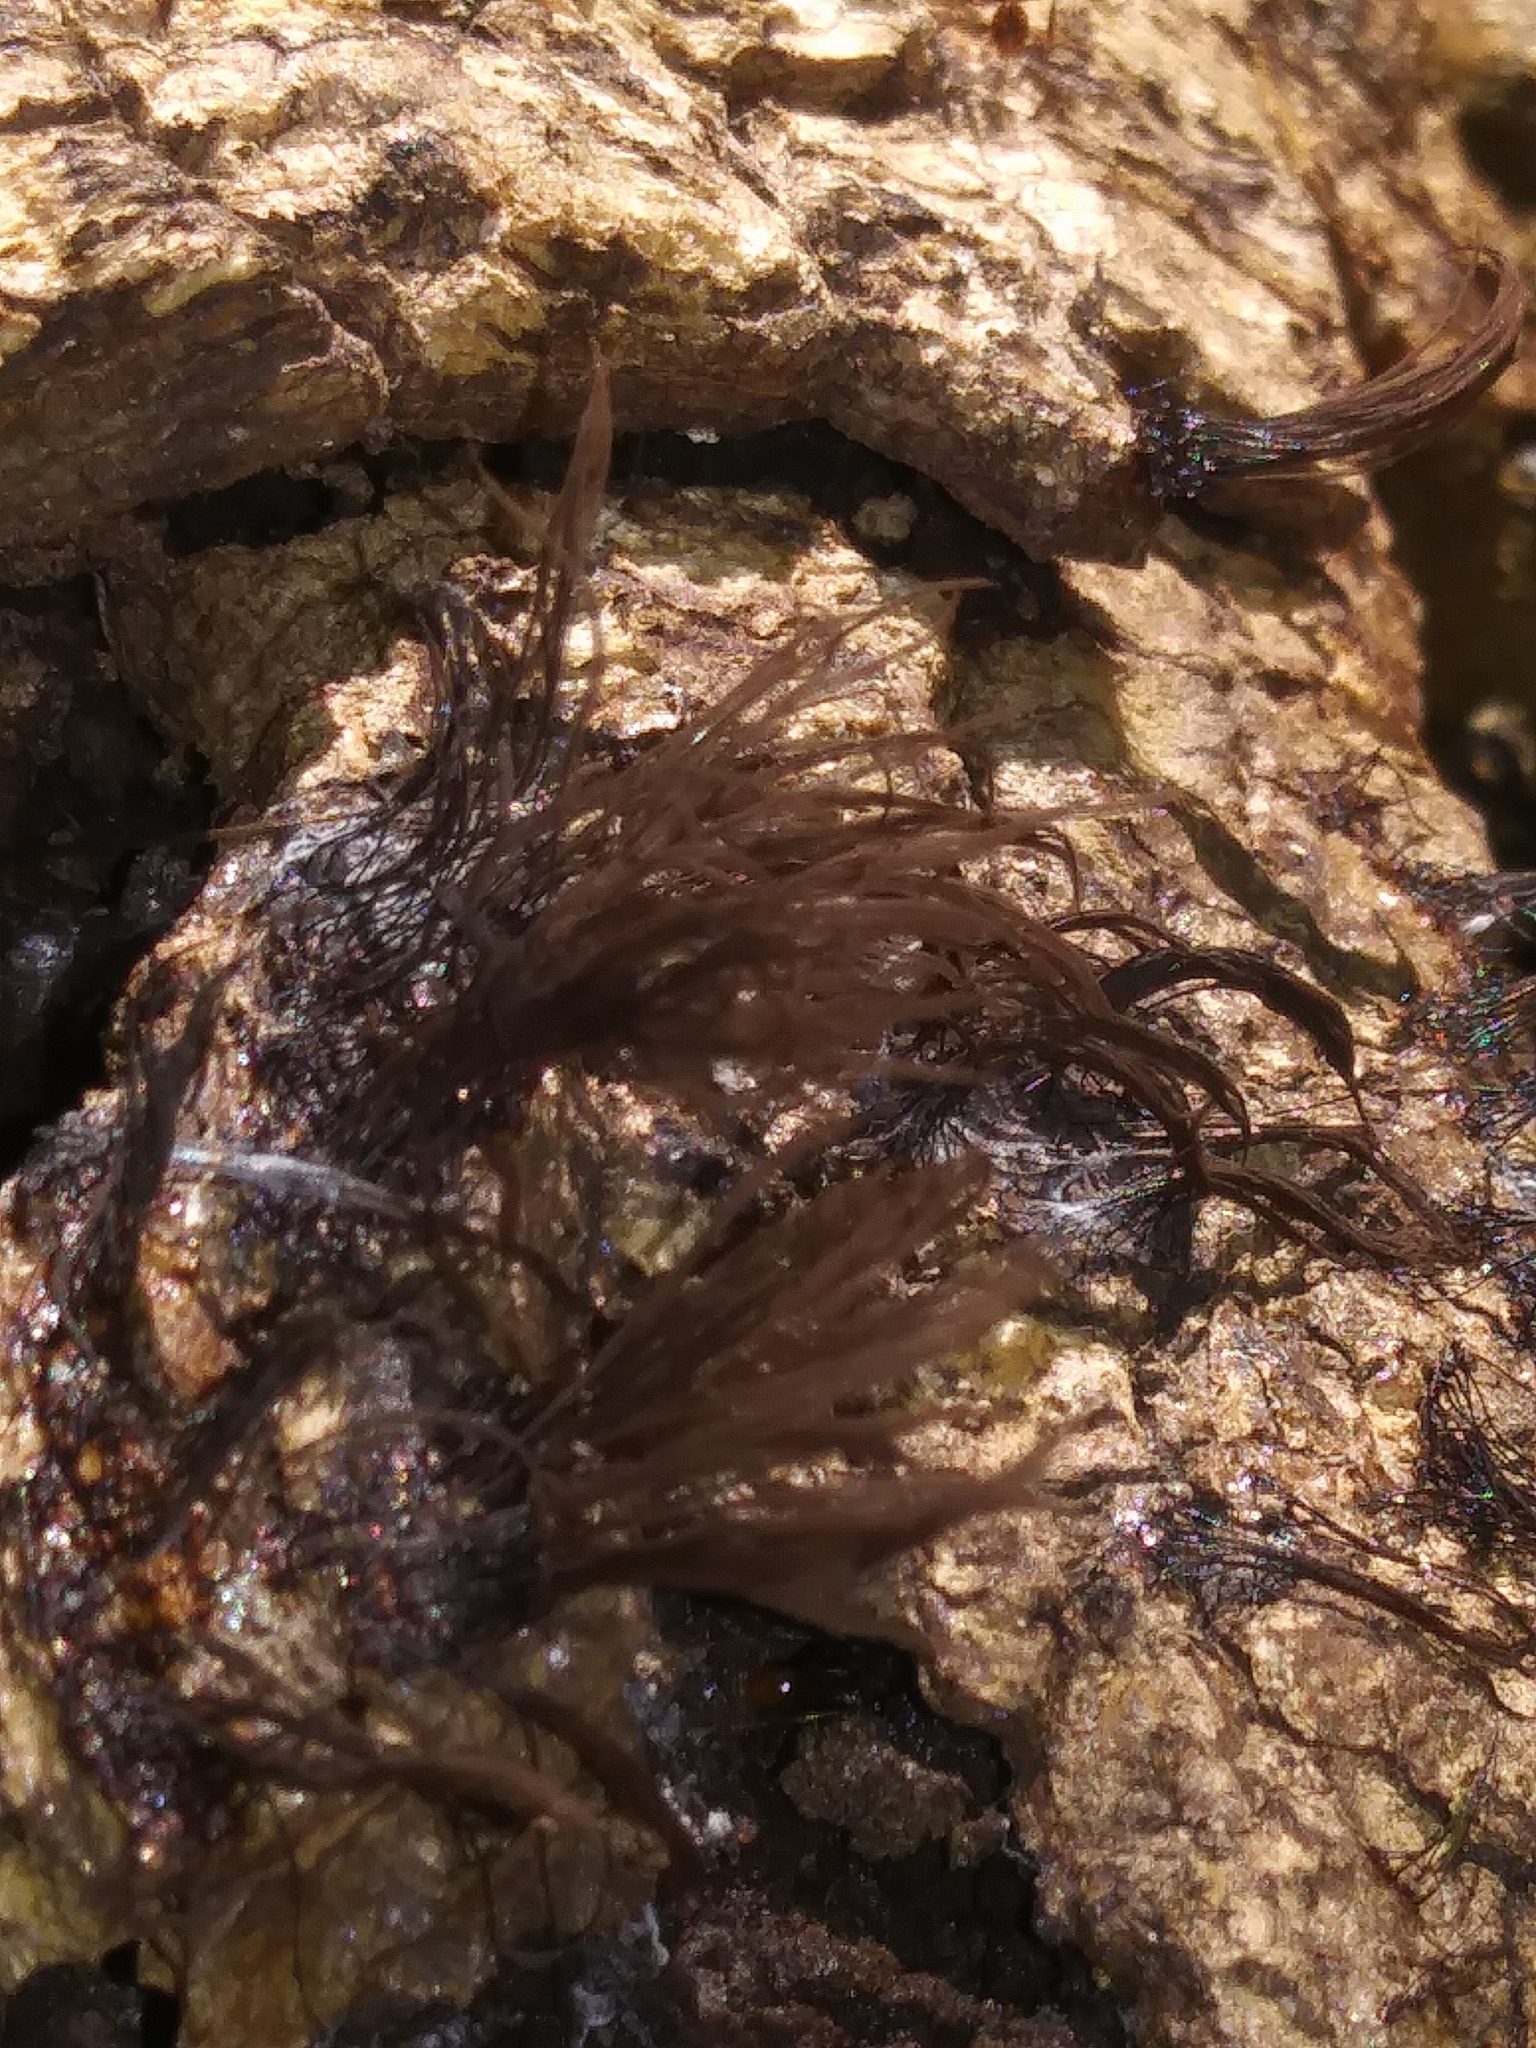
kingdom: Protozoa
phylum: Mycetozoa
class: Myxomycetes
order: Stemonitidales
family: Stemonitidaceae
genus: Stemonitis
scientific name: Stemonitis splendens
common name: Chocolate tube slime
